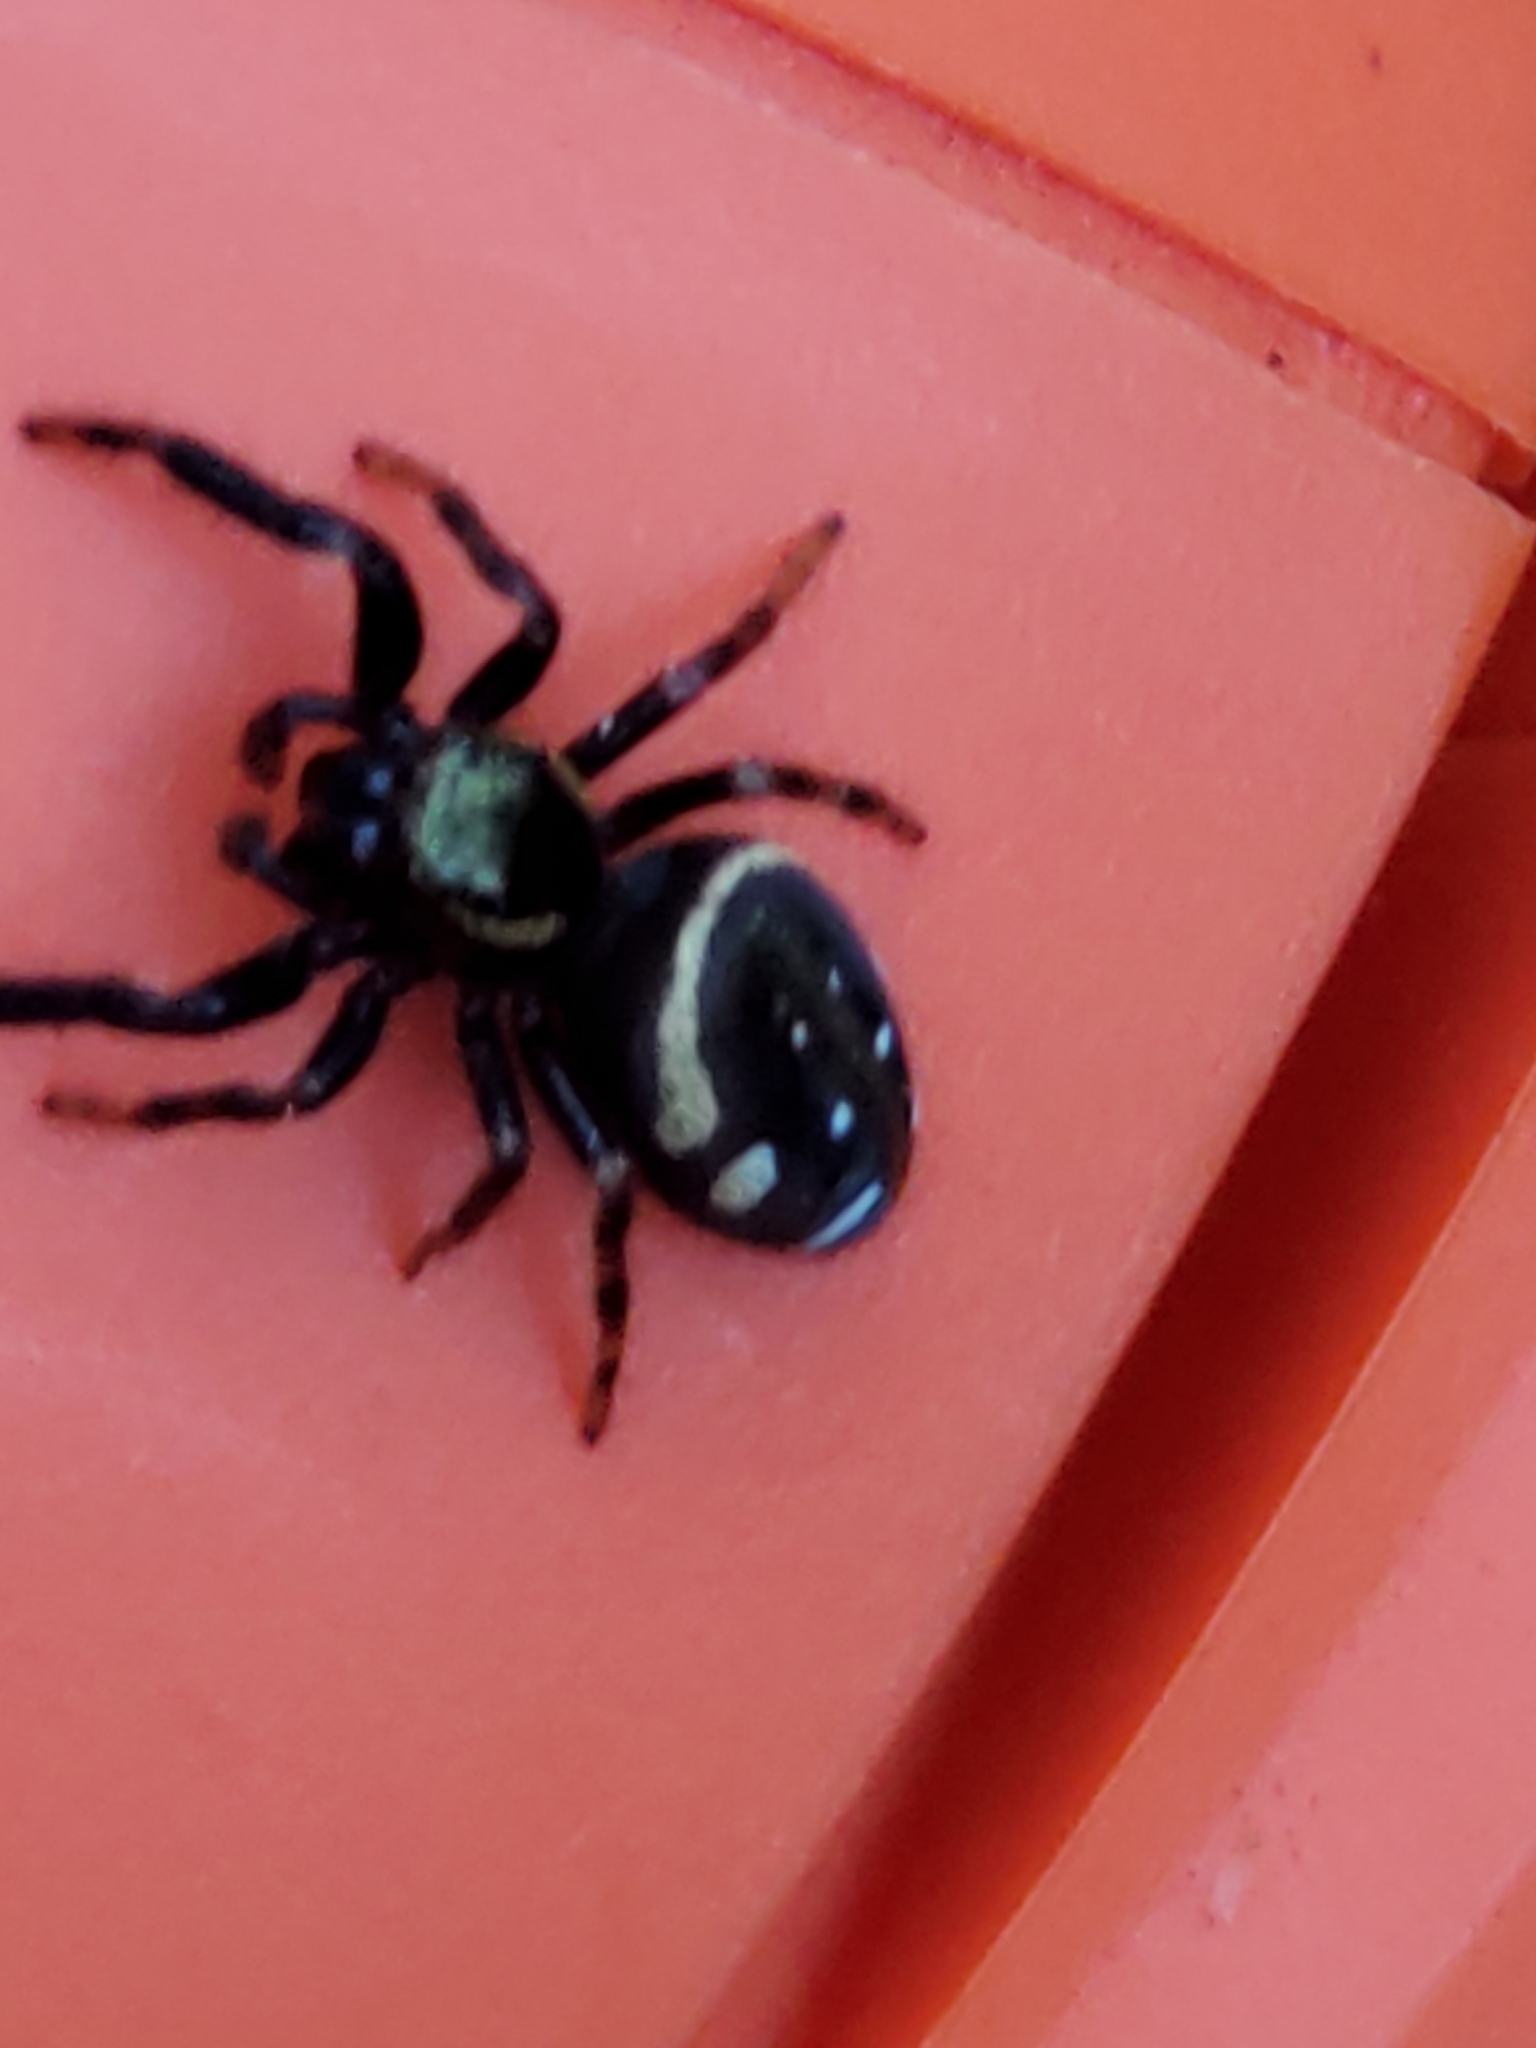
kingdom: Animalia
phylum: Arthropoda
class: Arachnida
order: Araneae
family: Salticidae
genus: Paraphidippus
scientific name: Paraphidippus aurantius
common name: Jumping spiders
